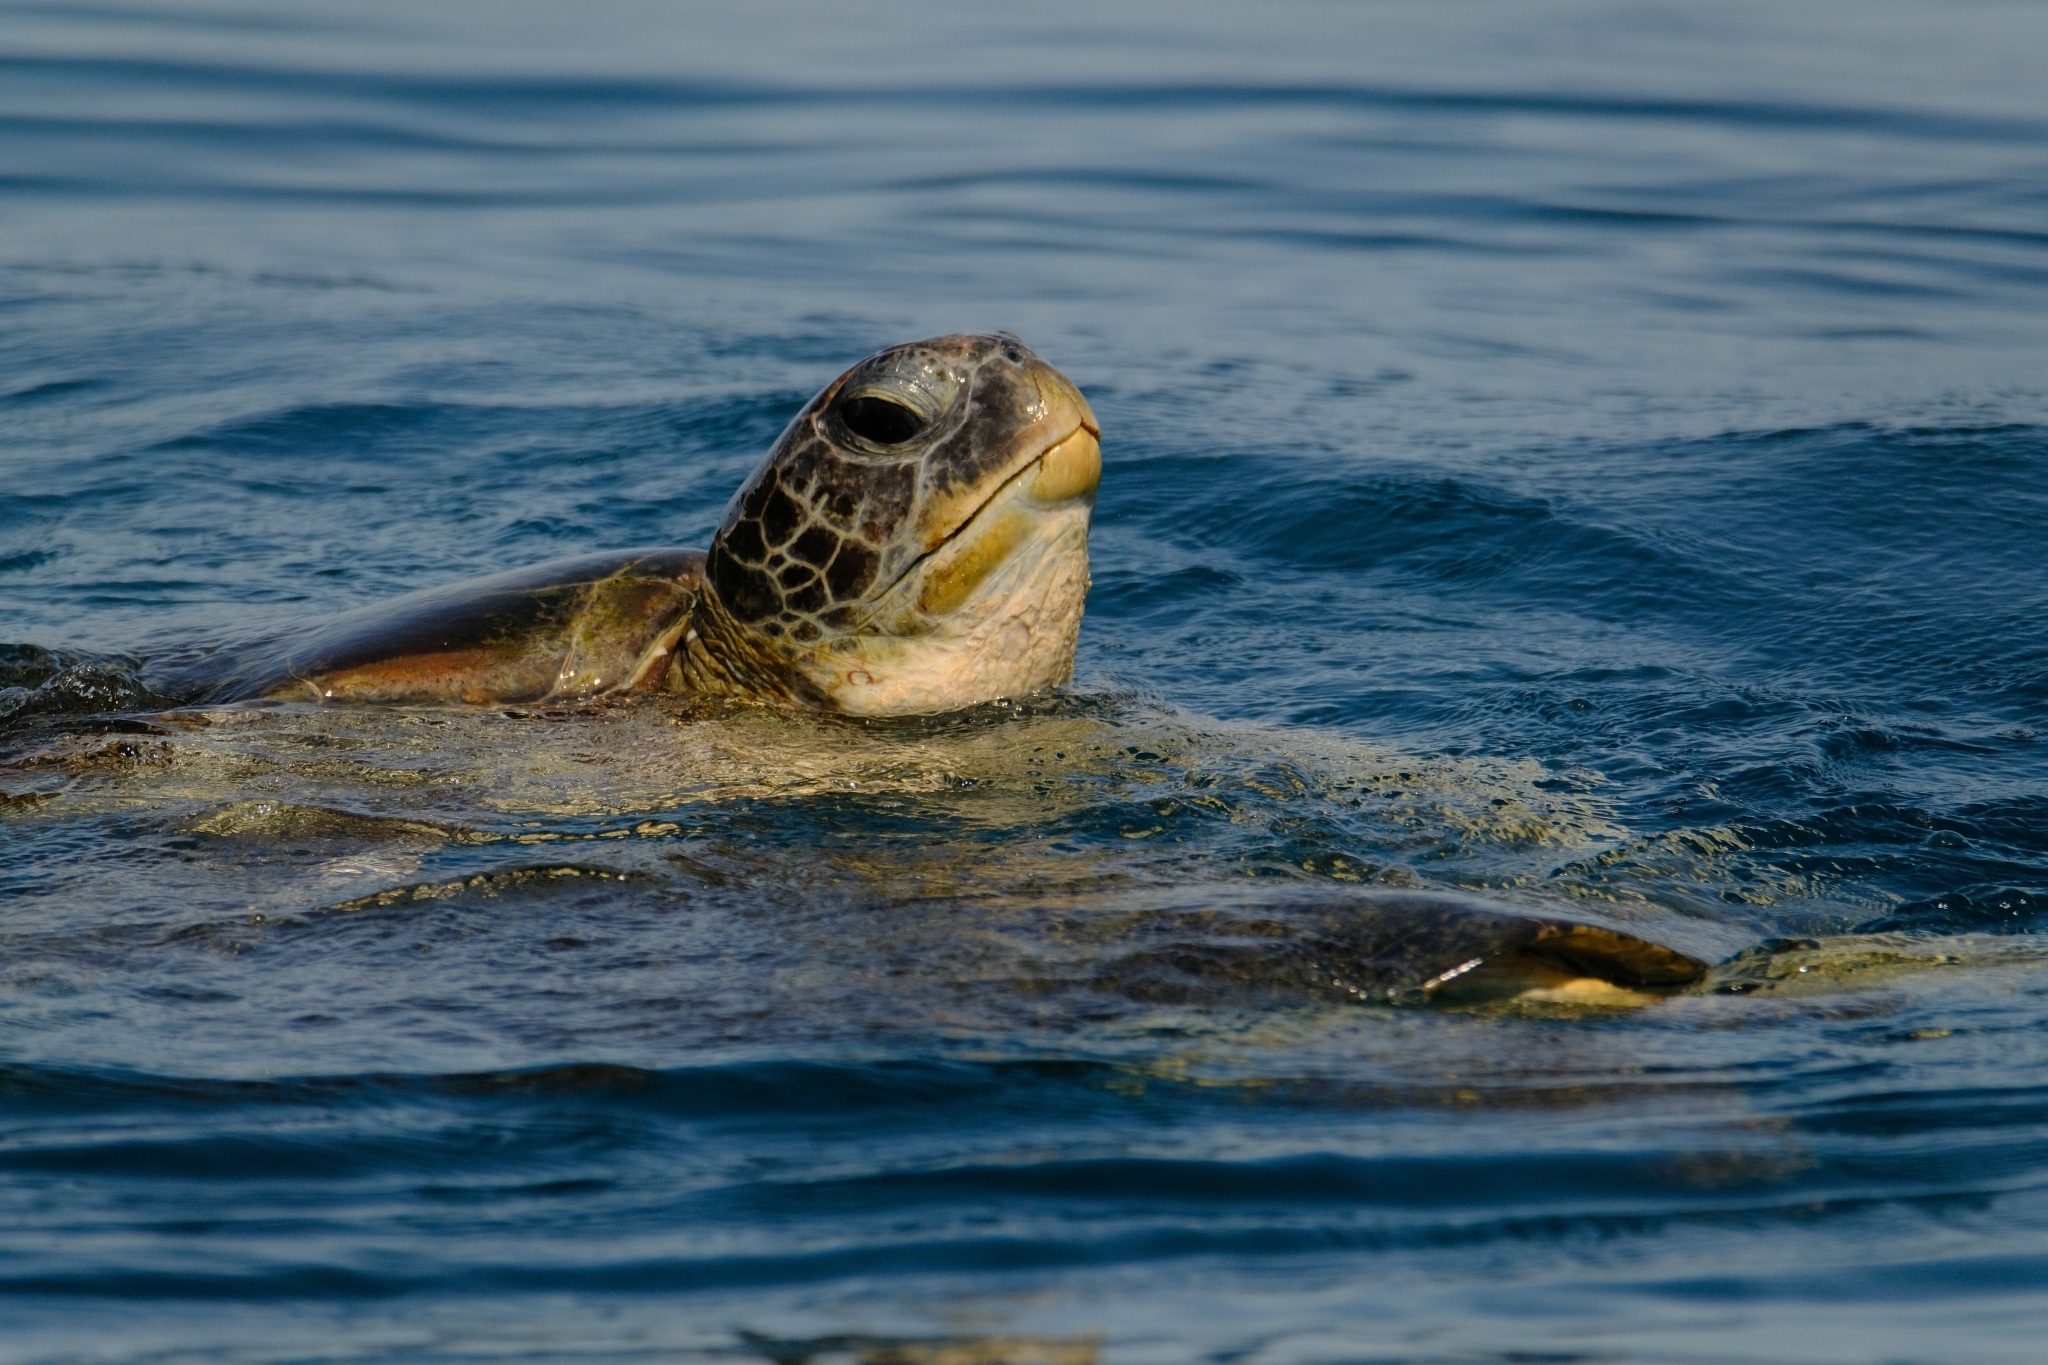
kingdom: Animalia
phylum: Chordata
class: Testudines
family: Cheloniidae
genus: Chelonia
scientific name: Chelonia mydas
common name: Green turtle
